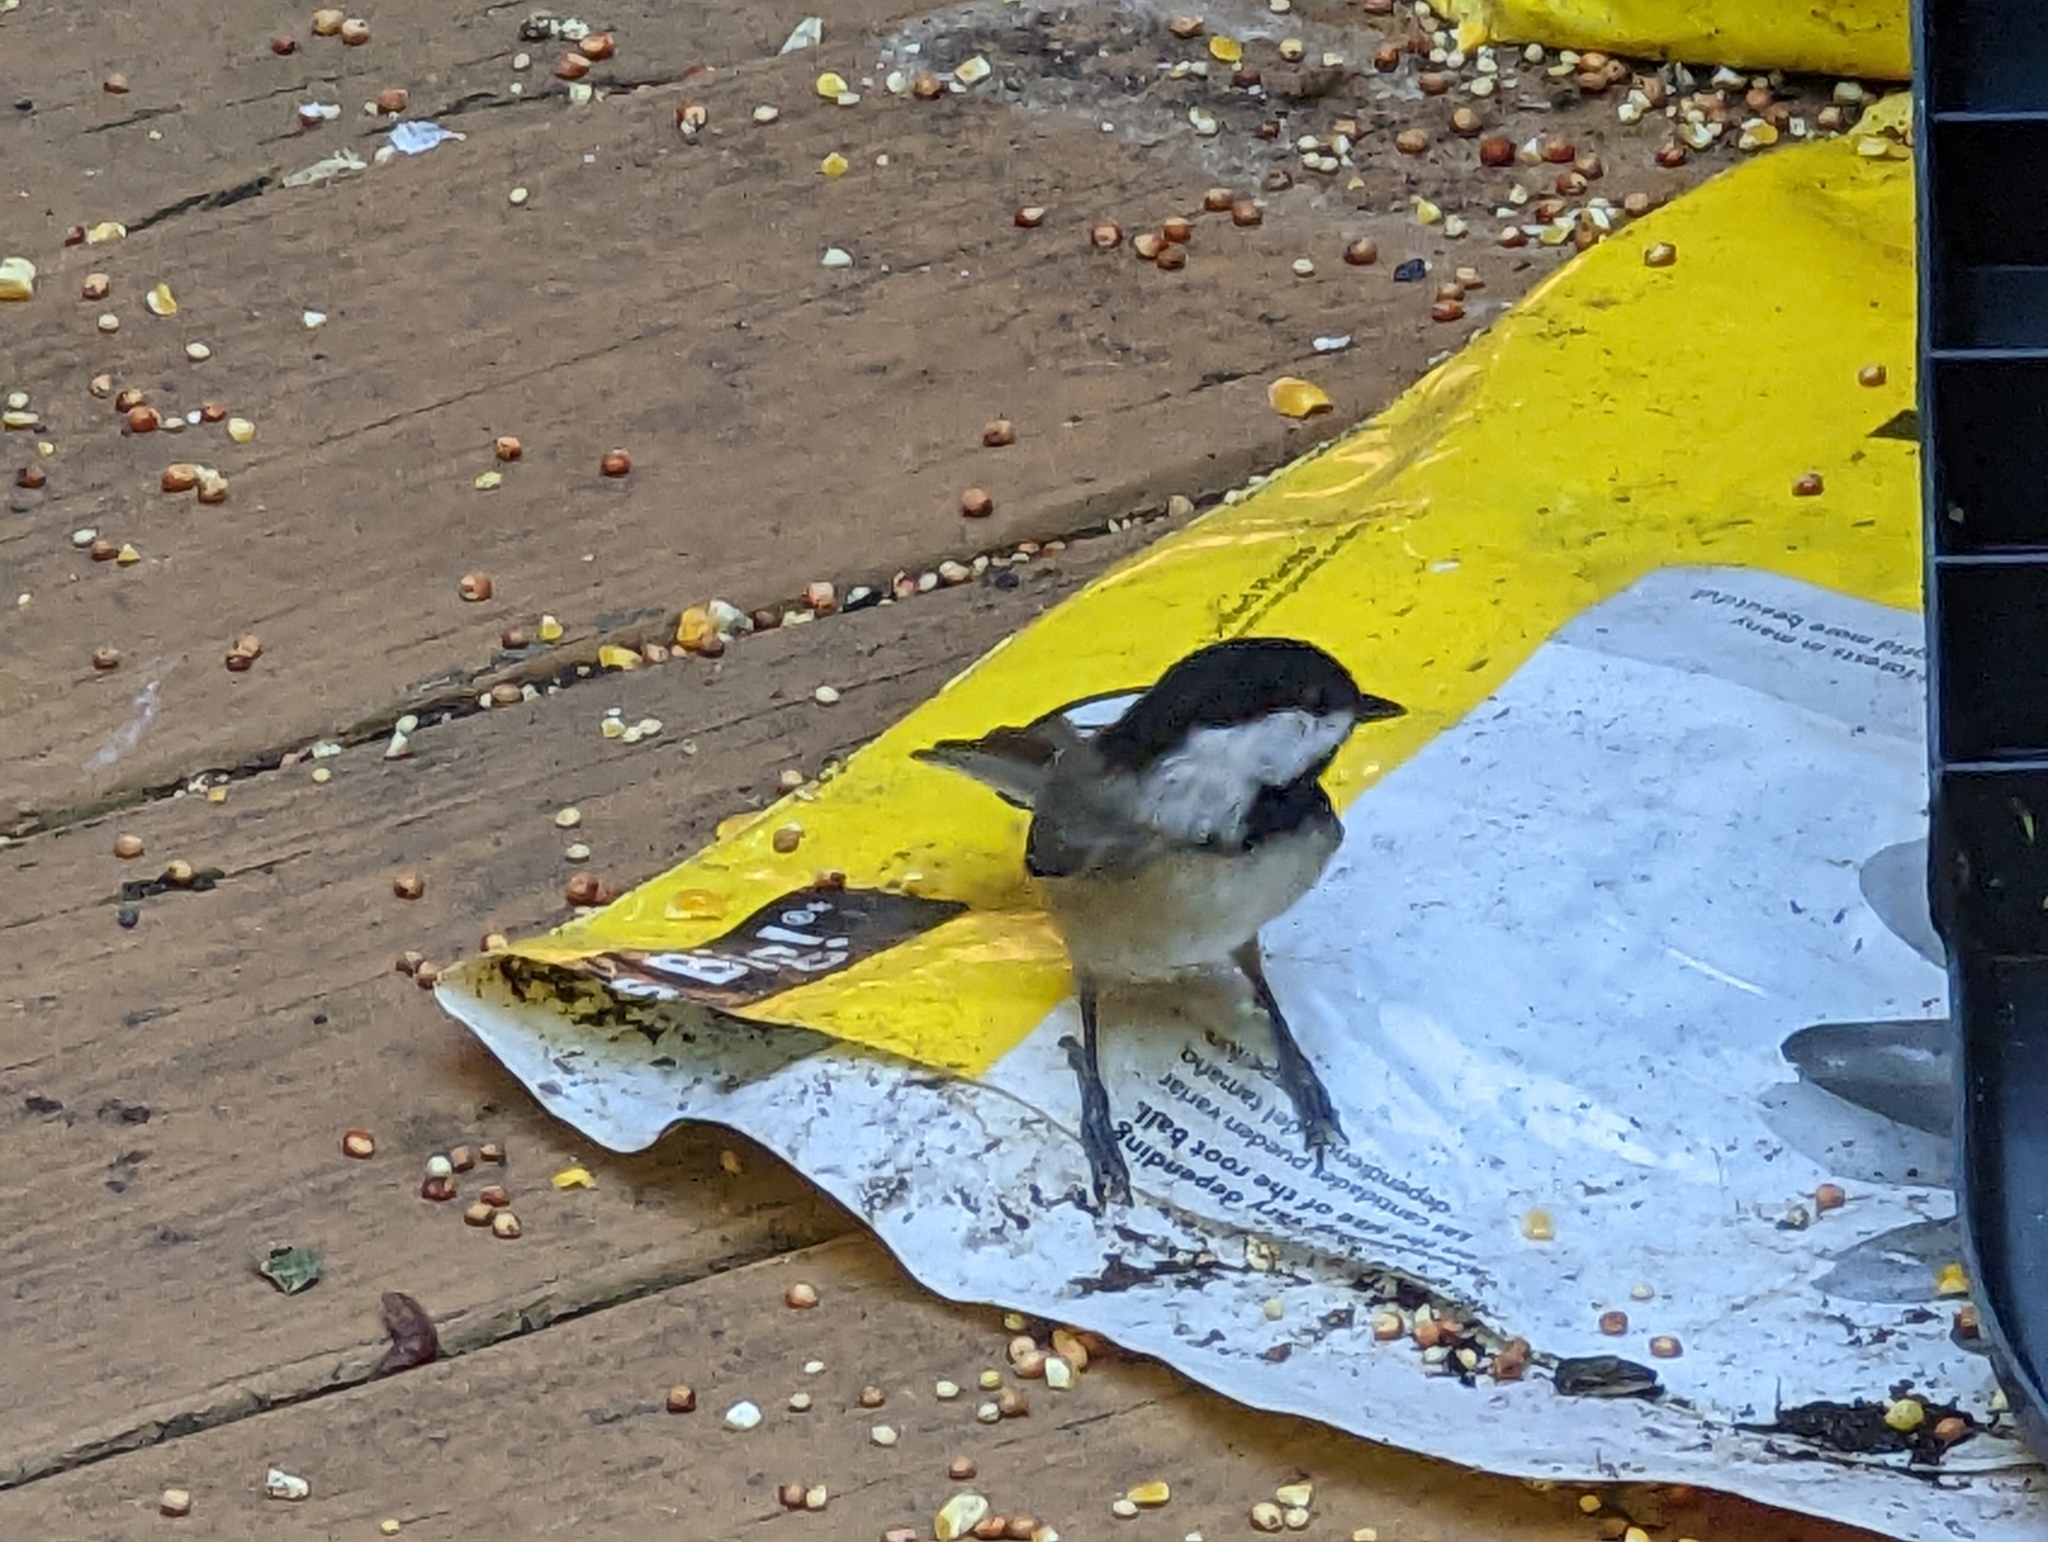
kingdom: Animalia
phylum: Chordata
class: Aves
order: Passeriformes
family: Paridae
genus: Poecile
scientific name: Poecile carolinensis
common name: Carolina chickadee
